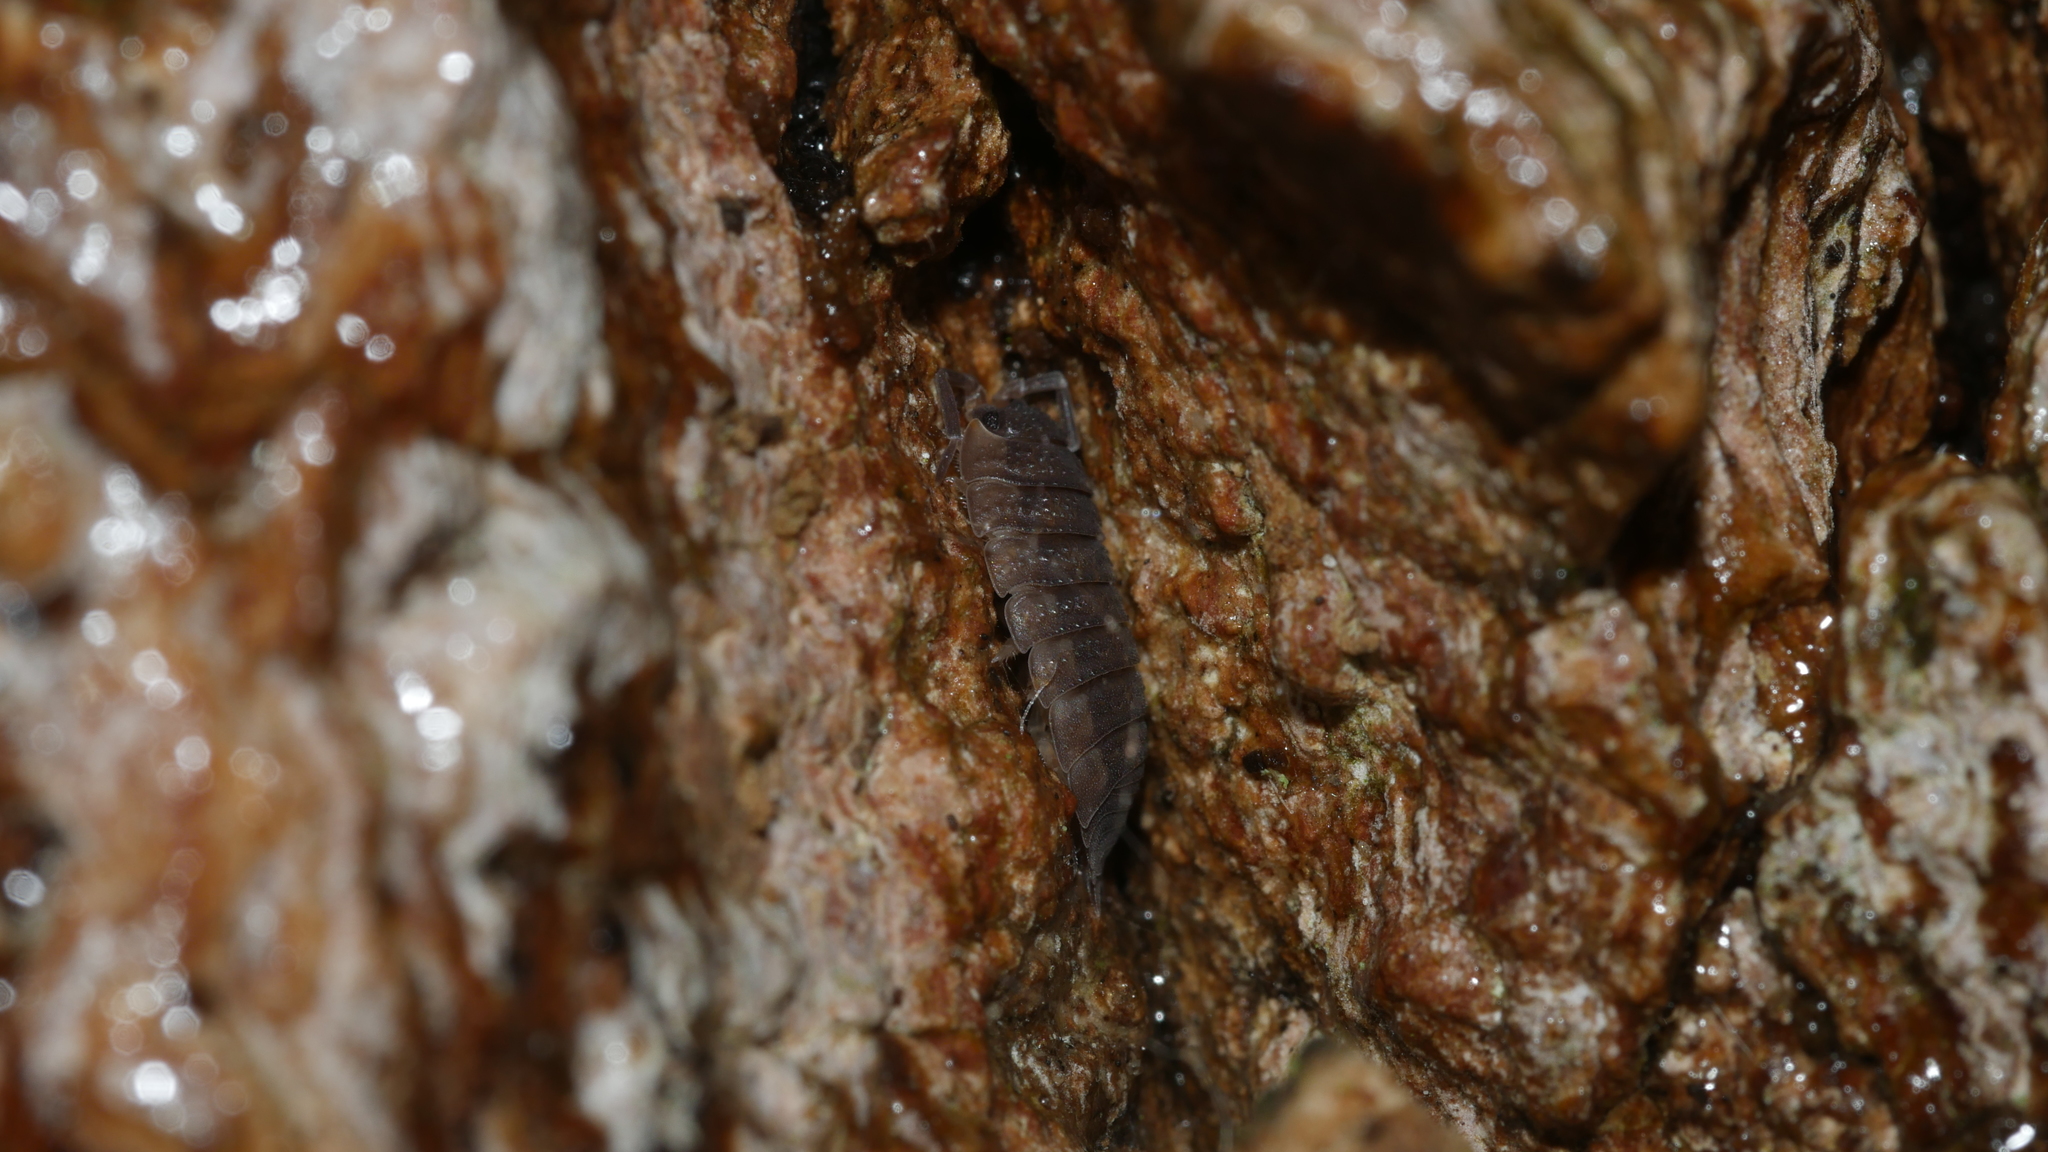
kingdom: Animalia
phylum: Arthropoda
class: Malacostraca
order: Isopoda
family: Porcellionidae
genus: Porcellio
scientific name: Porcellio scaber
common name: Common rough woodlouse
